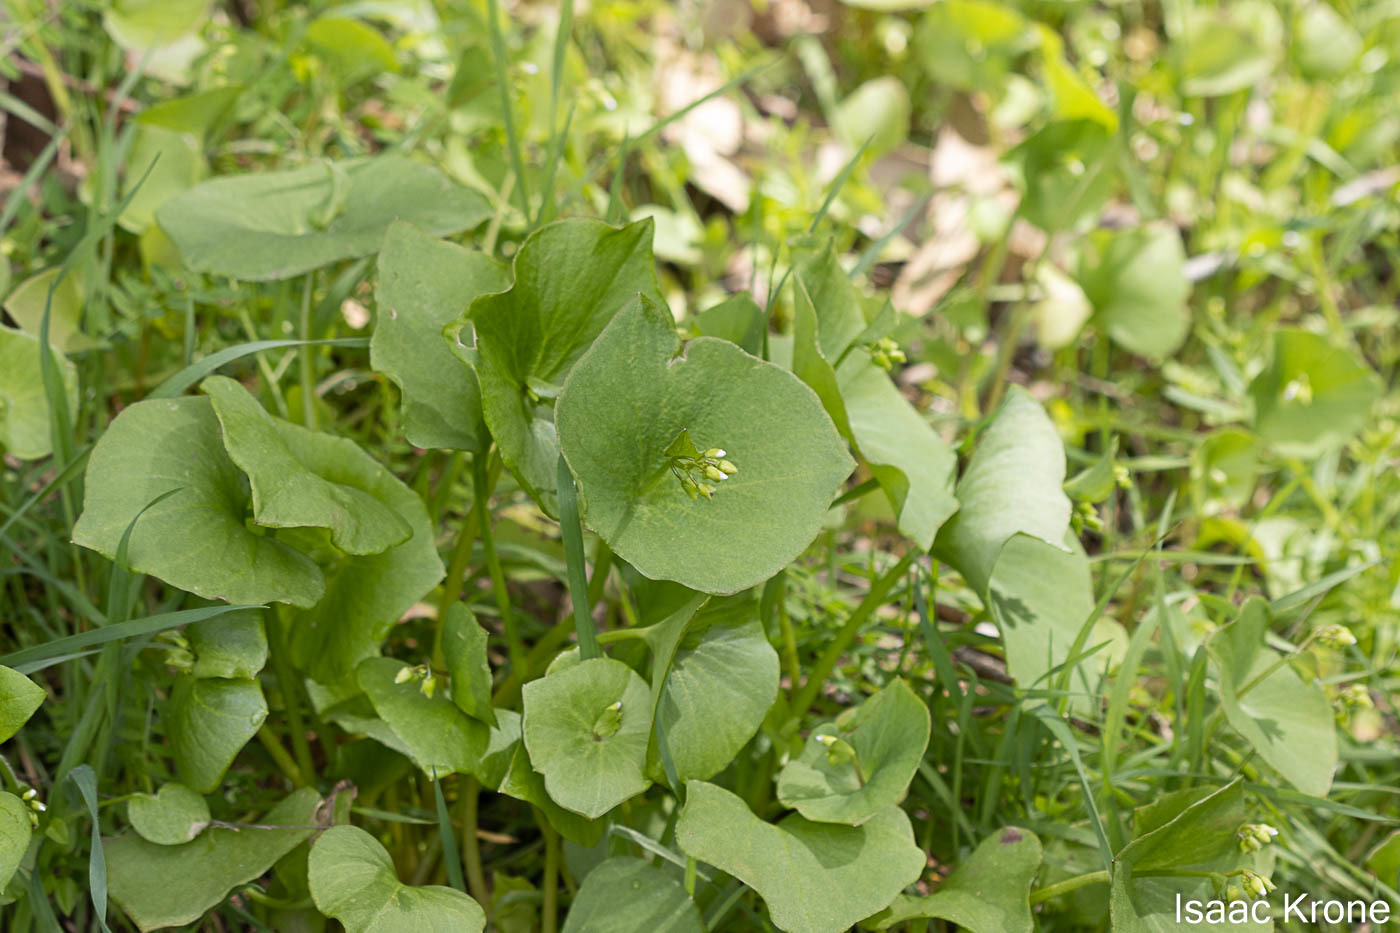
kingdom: Plantae
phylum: Tracheophyta
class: Magnoliopsida
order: Caryophyllales
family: Montiaceae
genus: Claytonia
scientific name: Claytonia perfoliata
